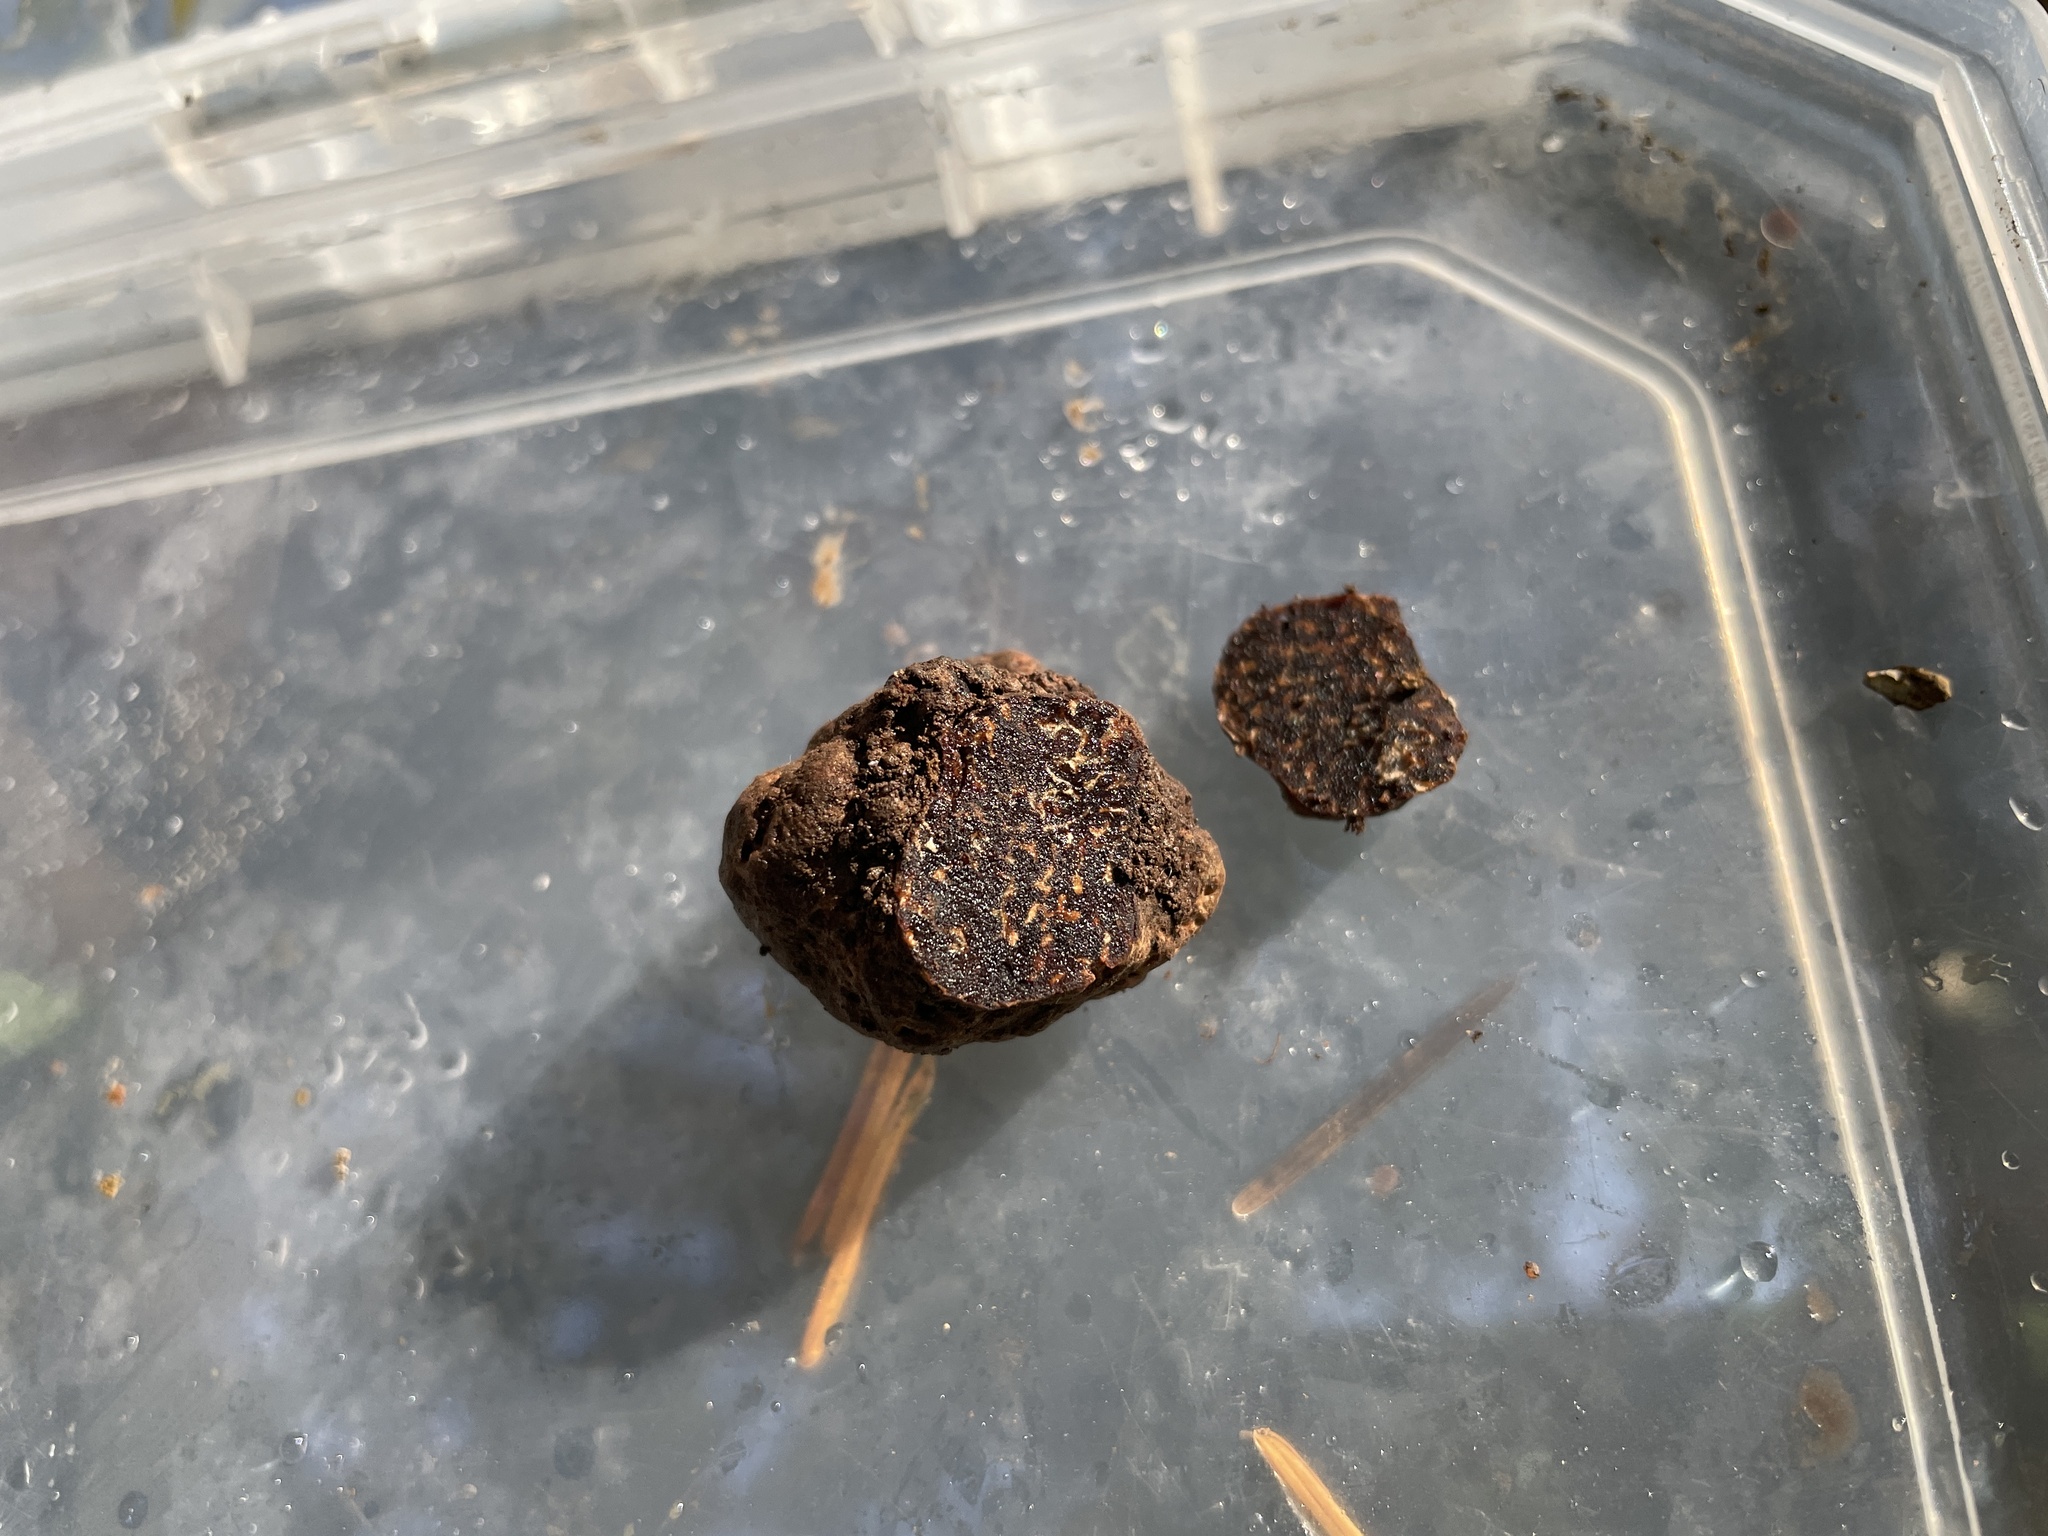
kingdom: Fungi
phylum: Ascomycota
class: Pezizomycetes
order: Pezizales
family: Morchellaceae
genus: Fischerula
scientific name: Fischerula subcaulis
